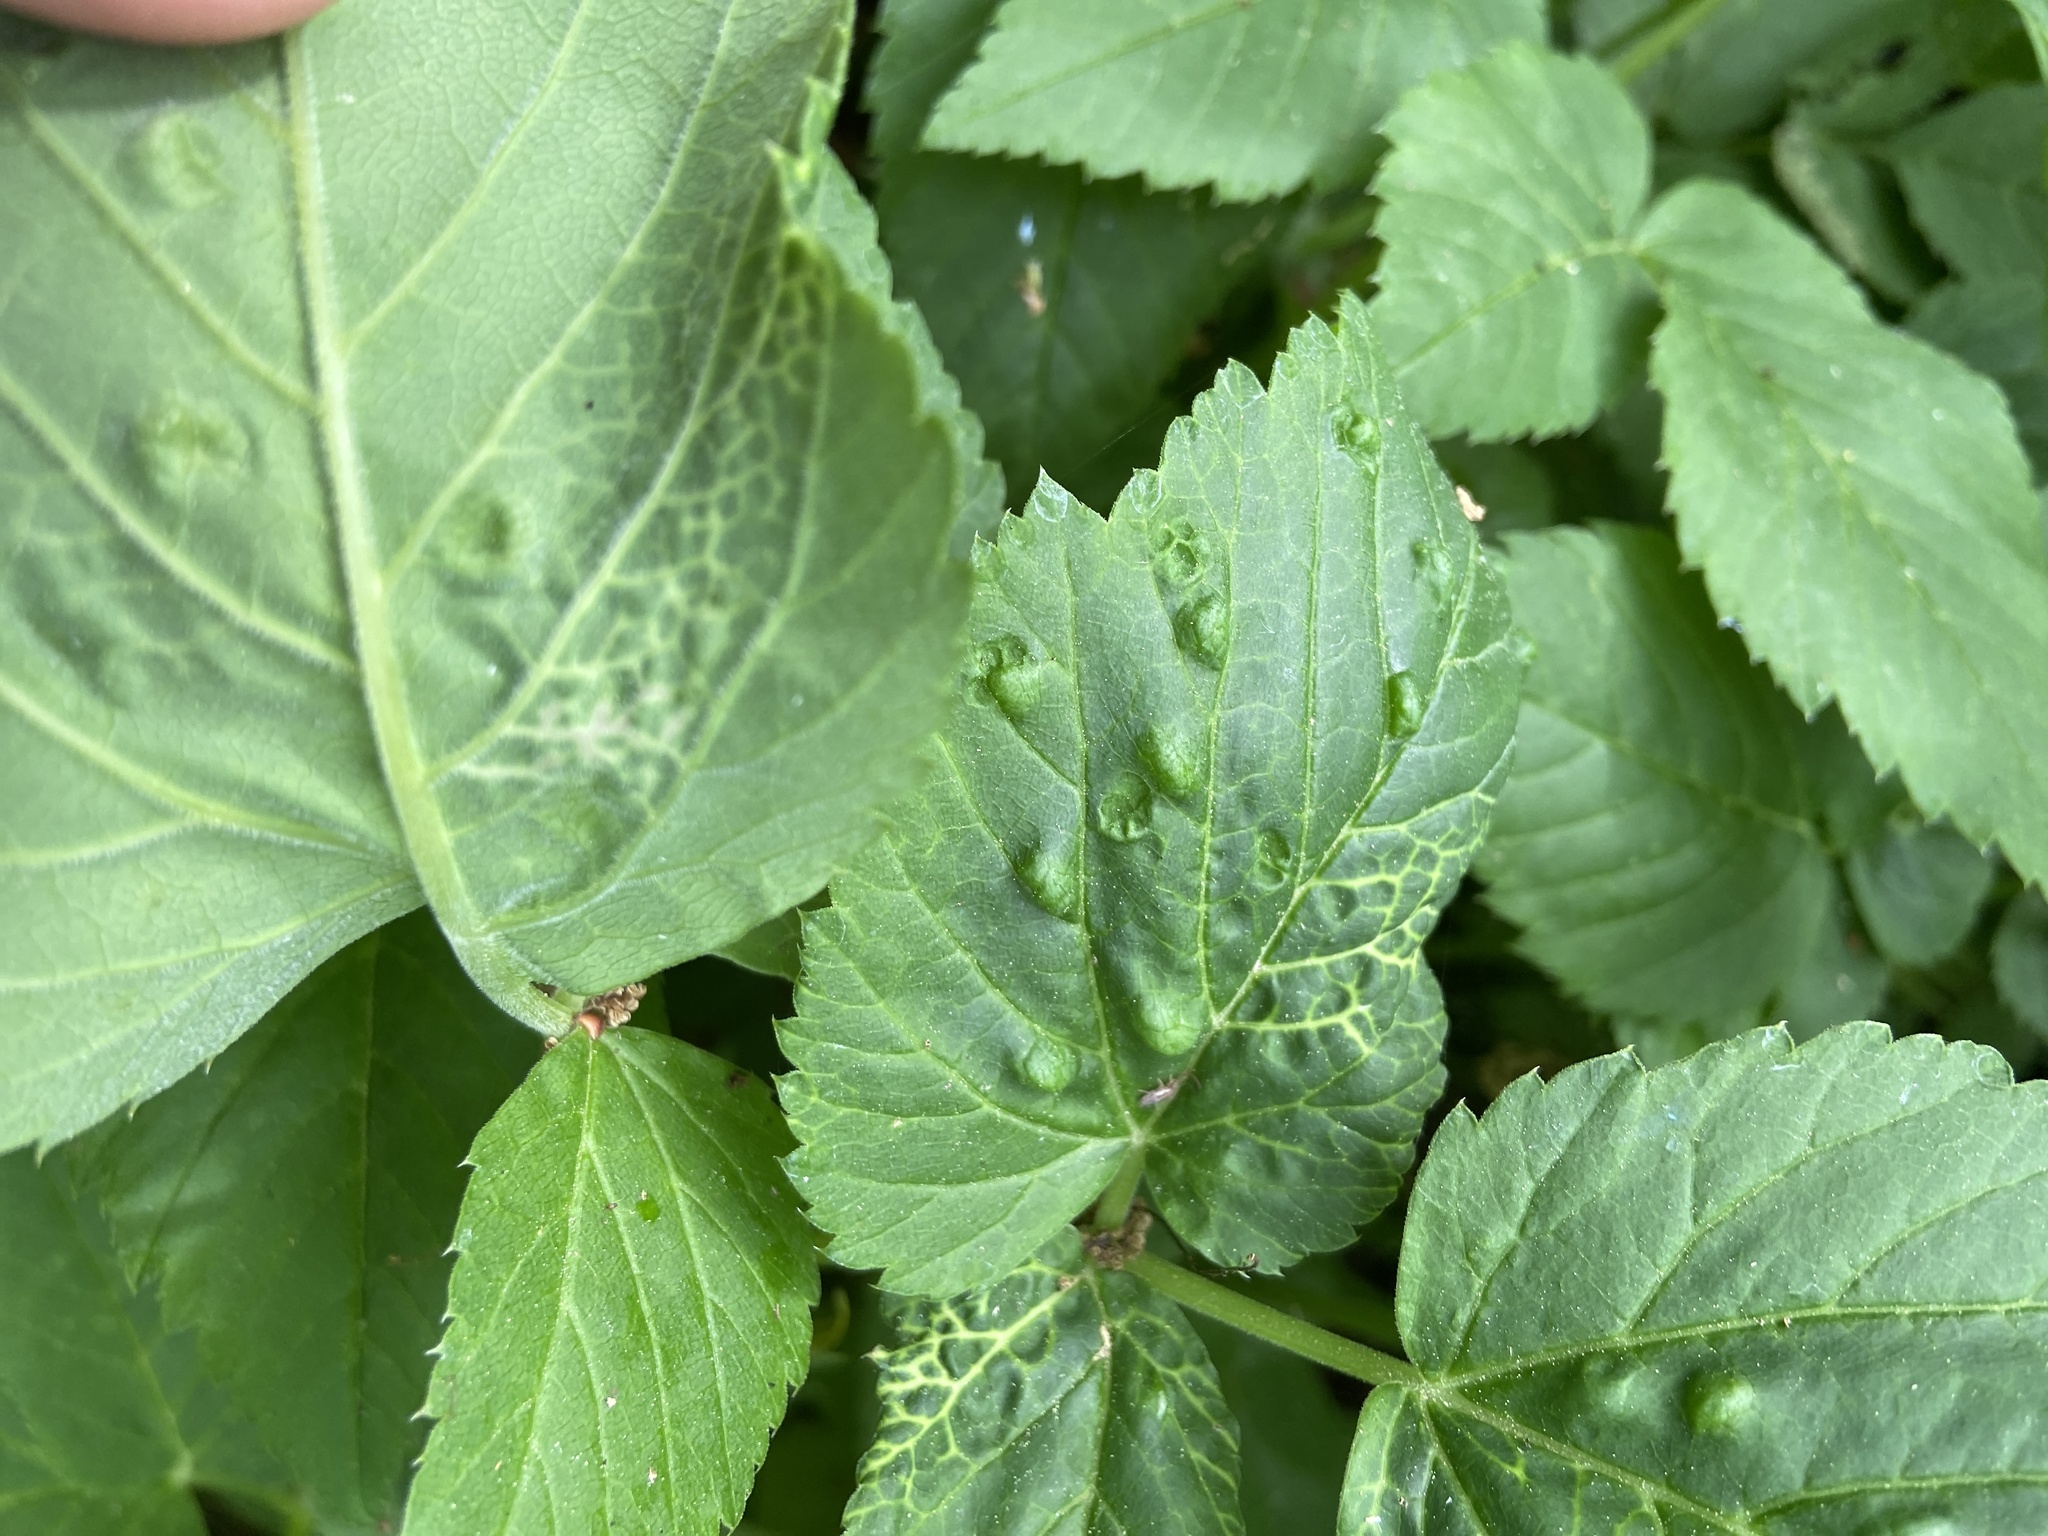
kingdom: Animalia
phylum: Arthropoda
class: Insecta
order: Hemiptera
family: Triozidae
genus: Trioza
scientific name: Trioza flavipennis
